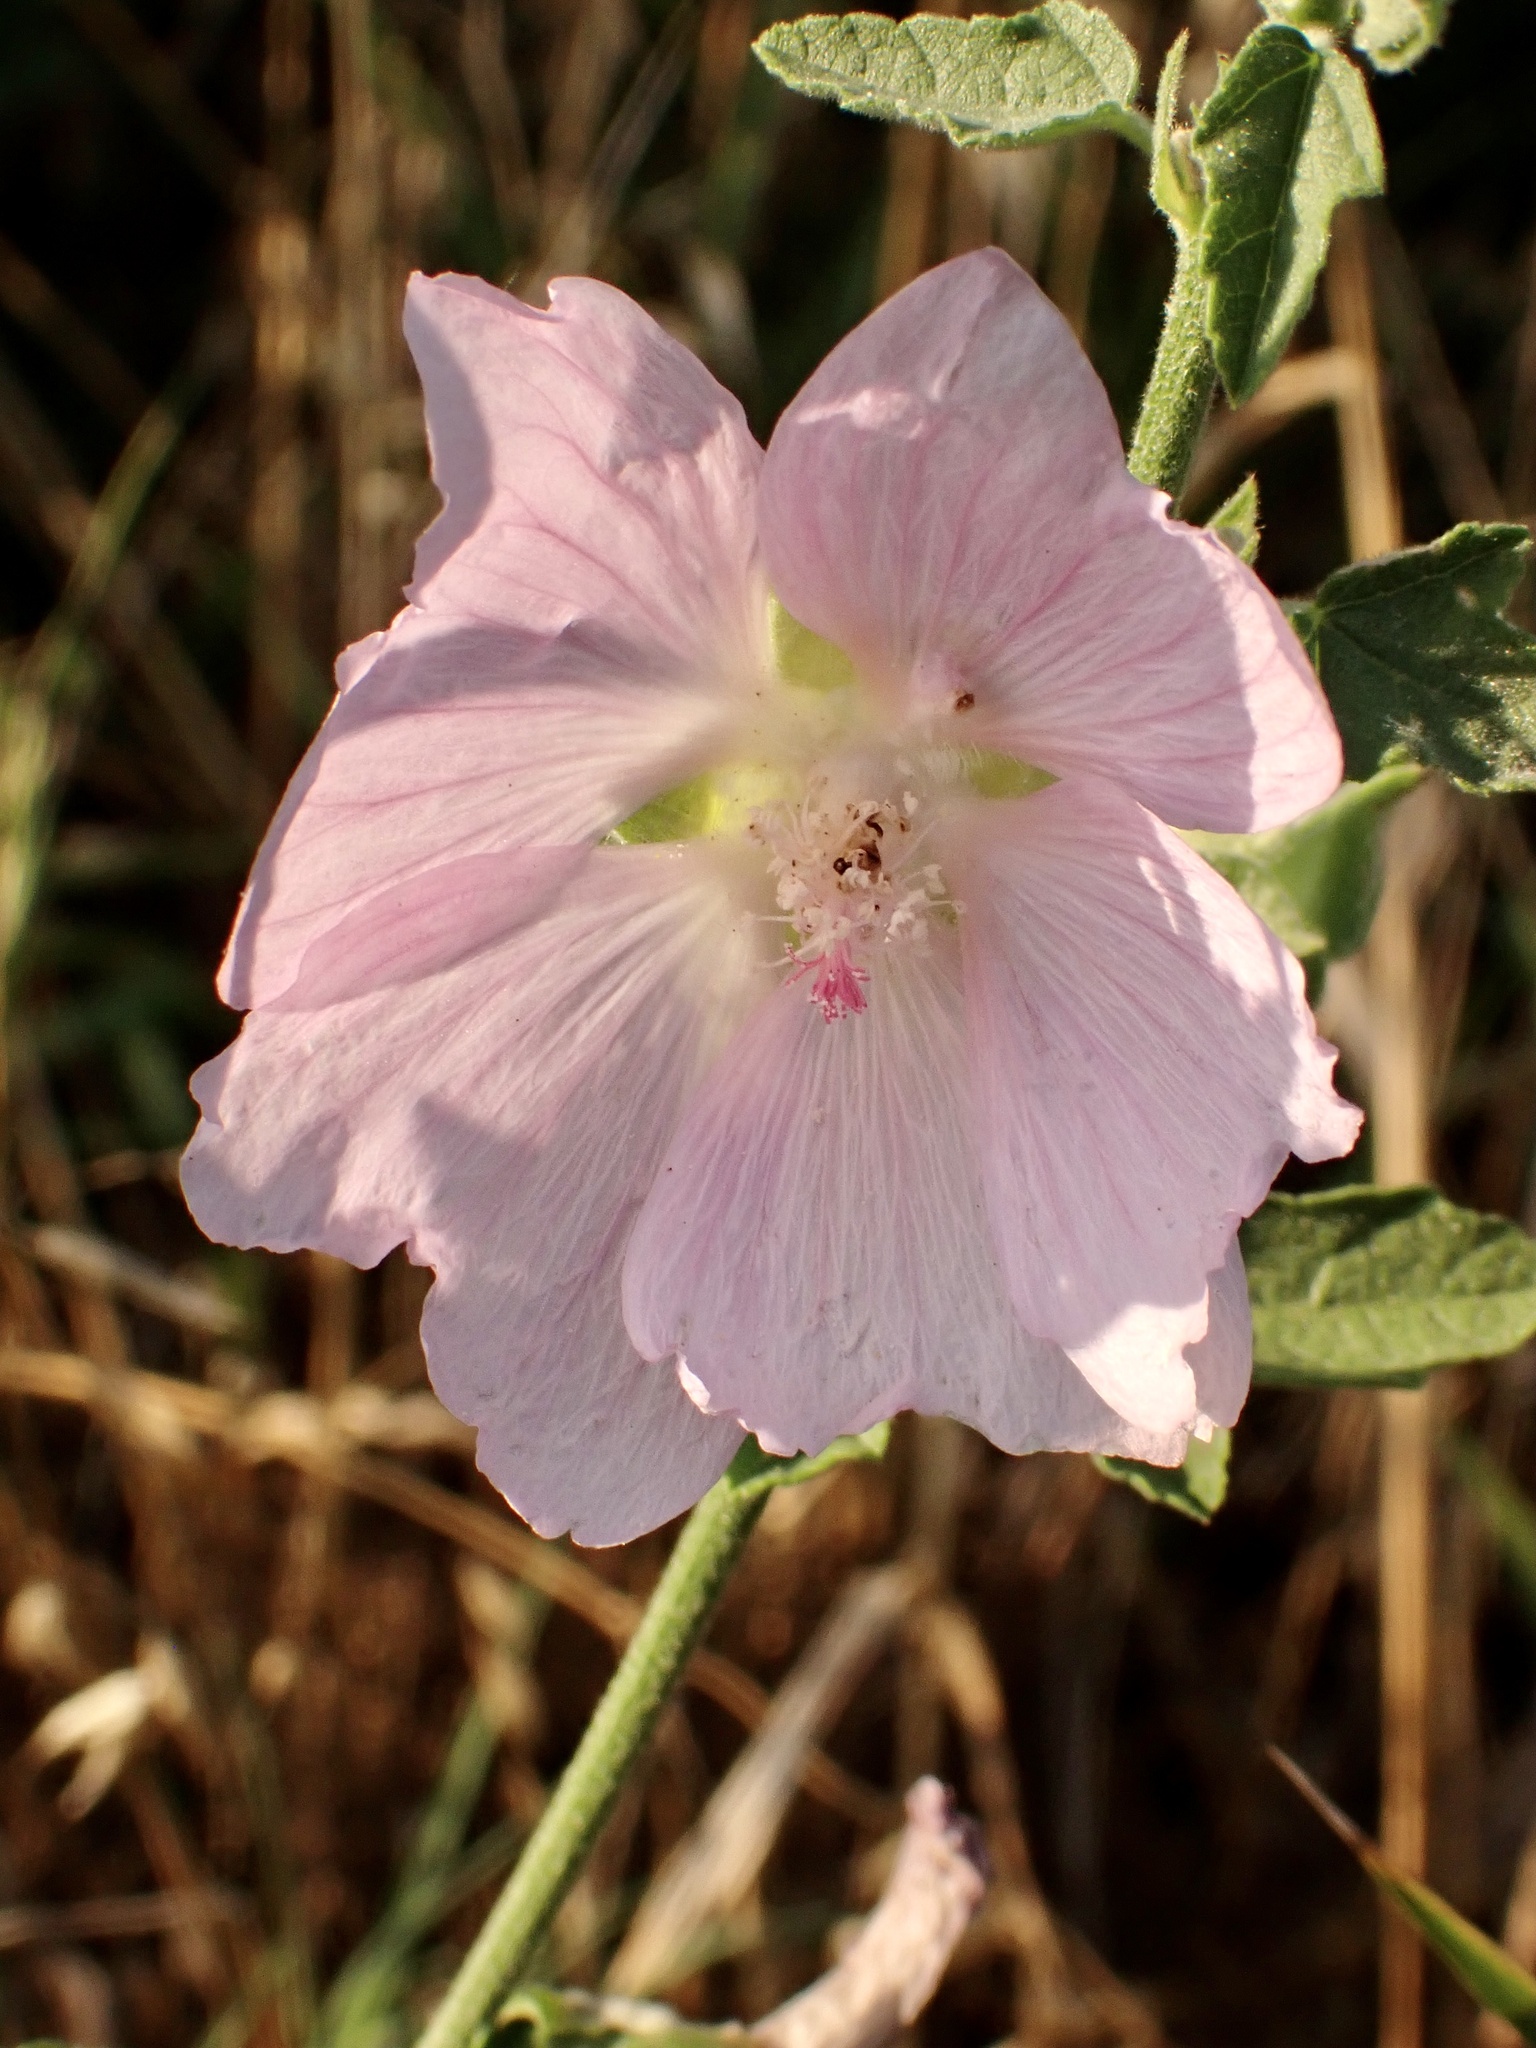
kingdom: Plantae
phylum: Tracheophyta
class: Magnoliopsida
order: Malvales
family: Malvaceae
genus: Malva
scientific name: Malva thuringiaca
